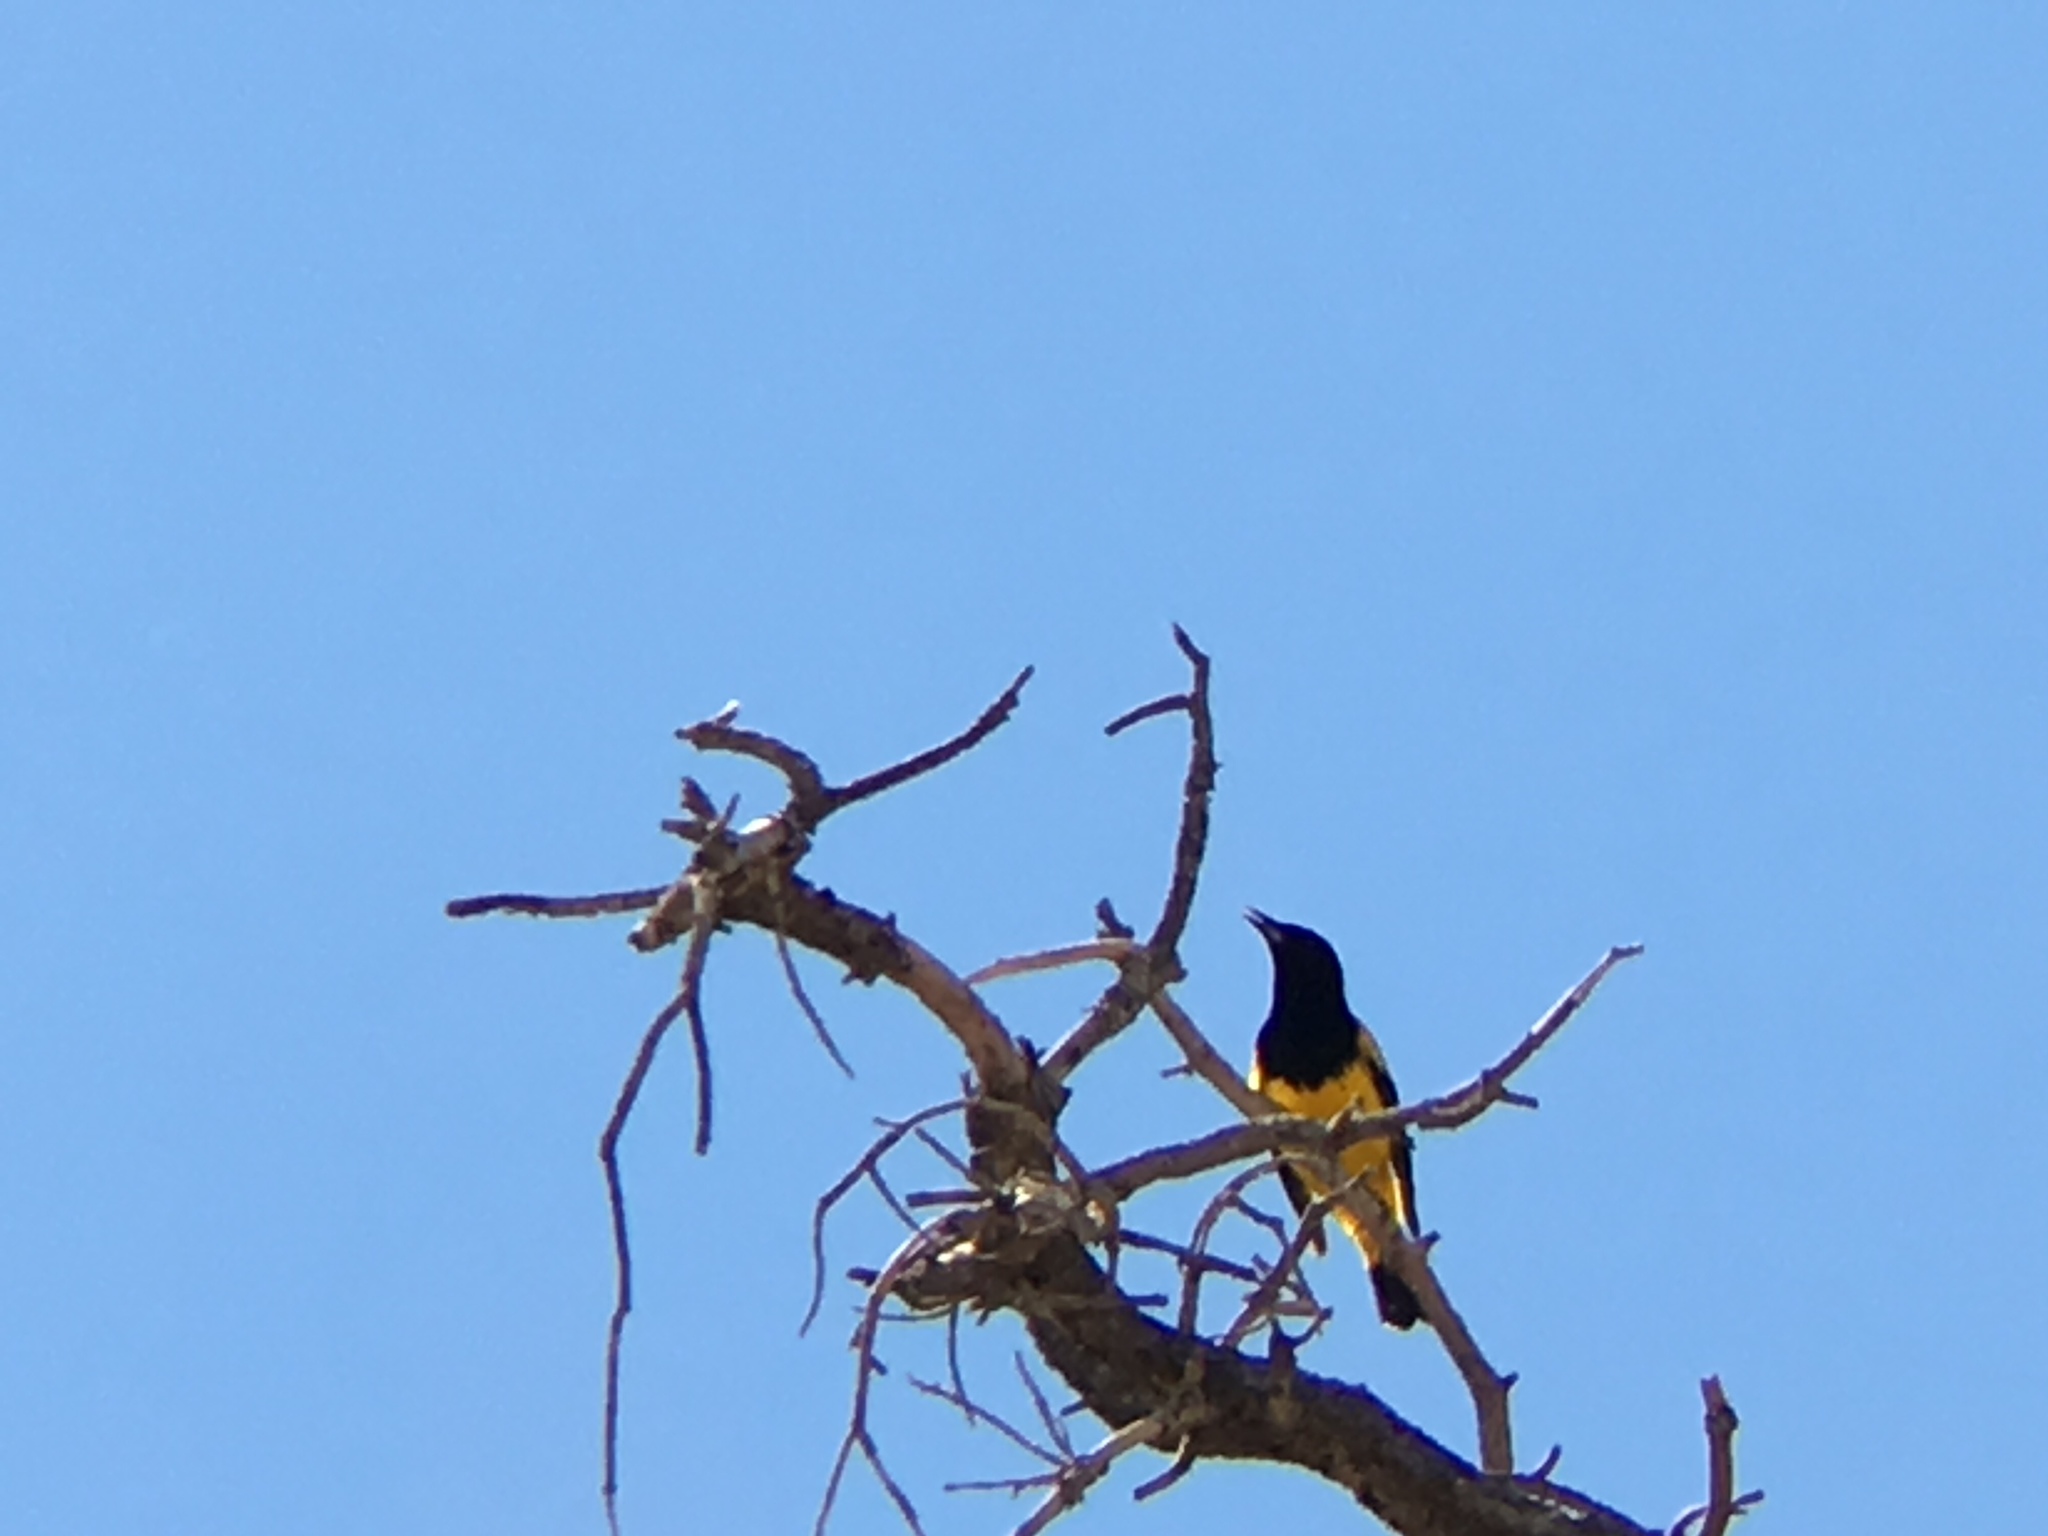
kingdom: Animalia
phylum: Chordata
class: Aves
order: Passeriformes
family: Icteridae
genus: Icterus
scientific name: Icterus parisorum
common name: Scott's oriole
